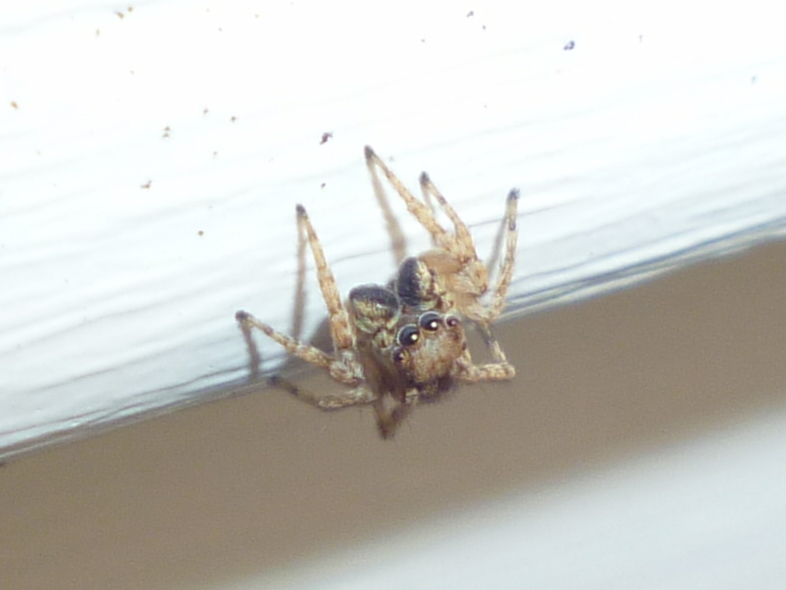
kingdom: Animalia
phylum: Arthropoda
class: Arachnida
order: Araneae
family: Salticidae
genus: Attulus
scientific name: Attulus fasciger
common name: Asiatic wall jumping spider
